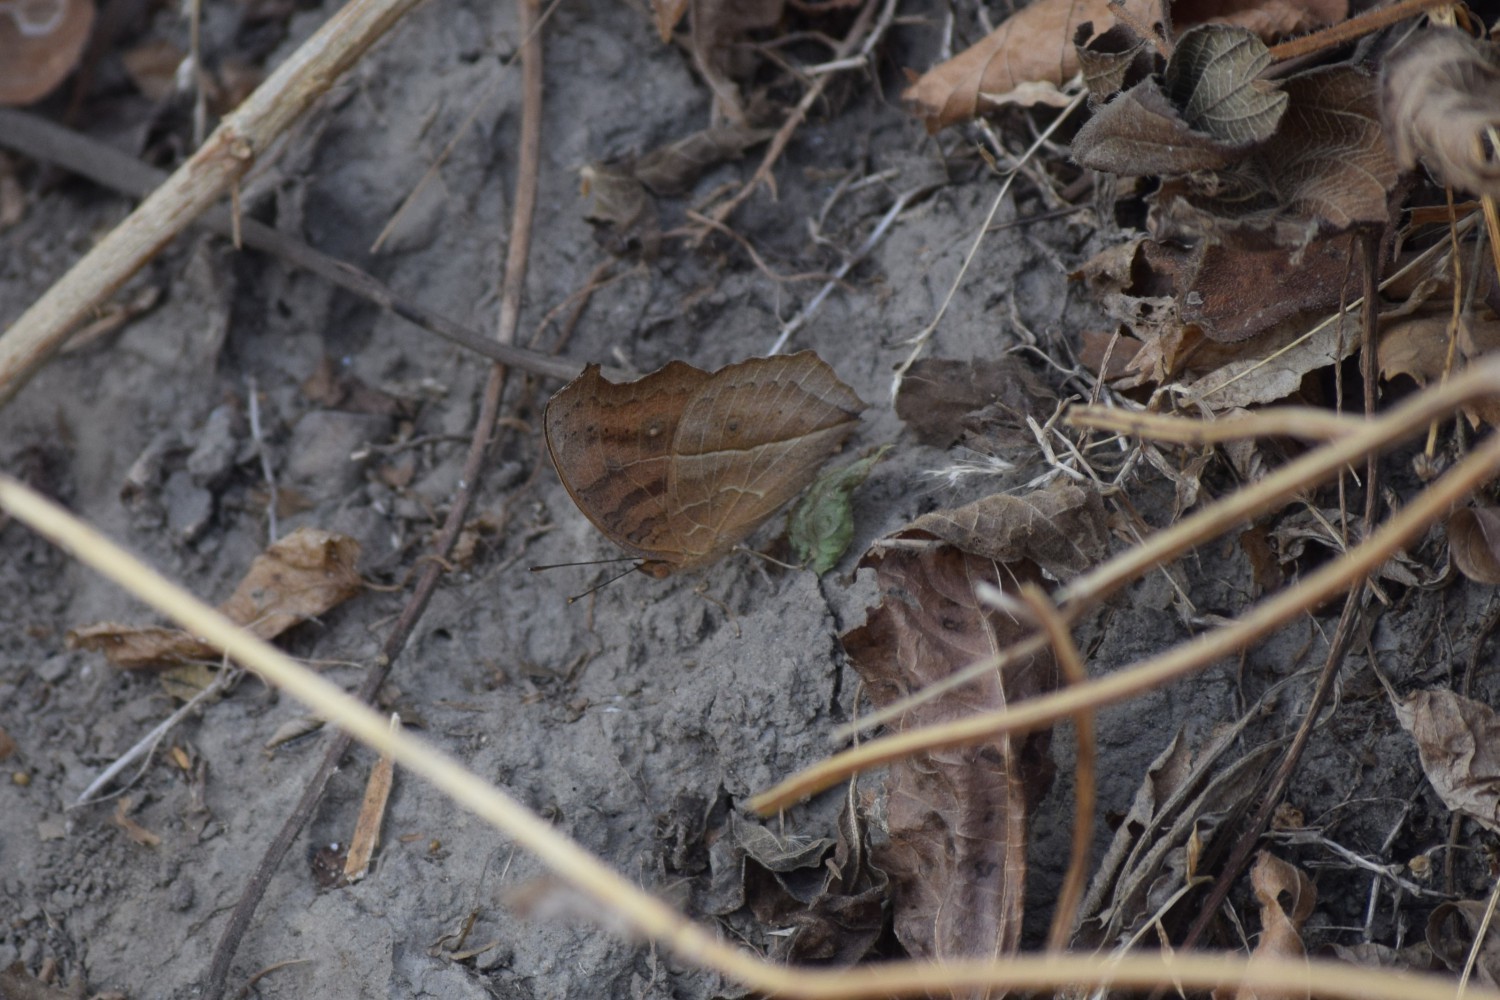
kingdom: Animalia
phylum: Arthropoda
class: Insecta
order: Lepidoptera
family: Nymphalidae
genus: Junonia
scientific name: Junonia almana
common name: Peacock pansy
